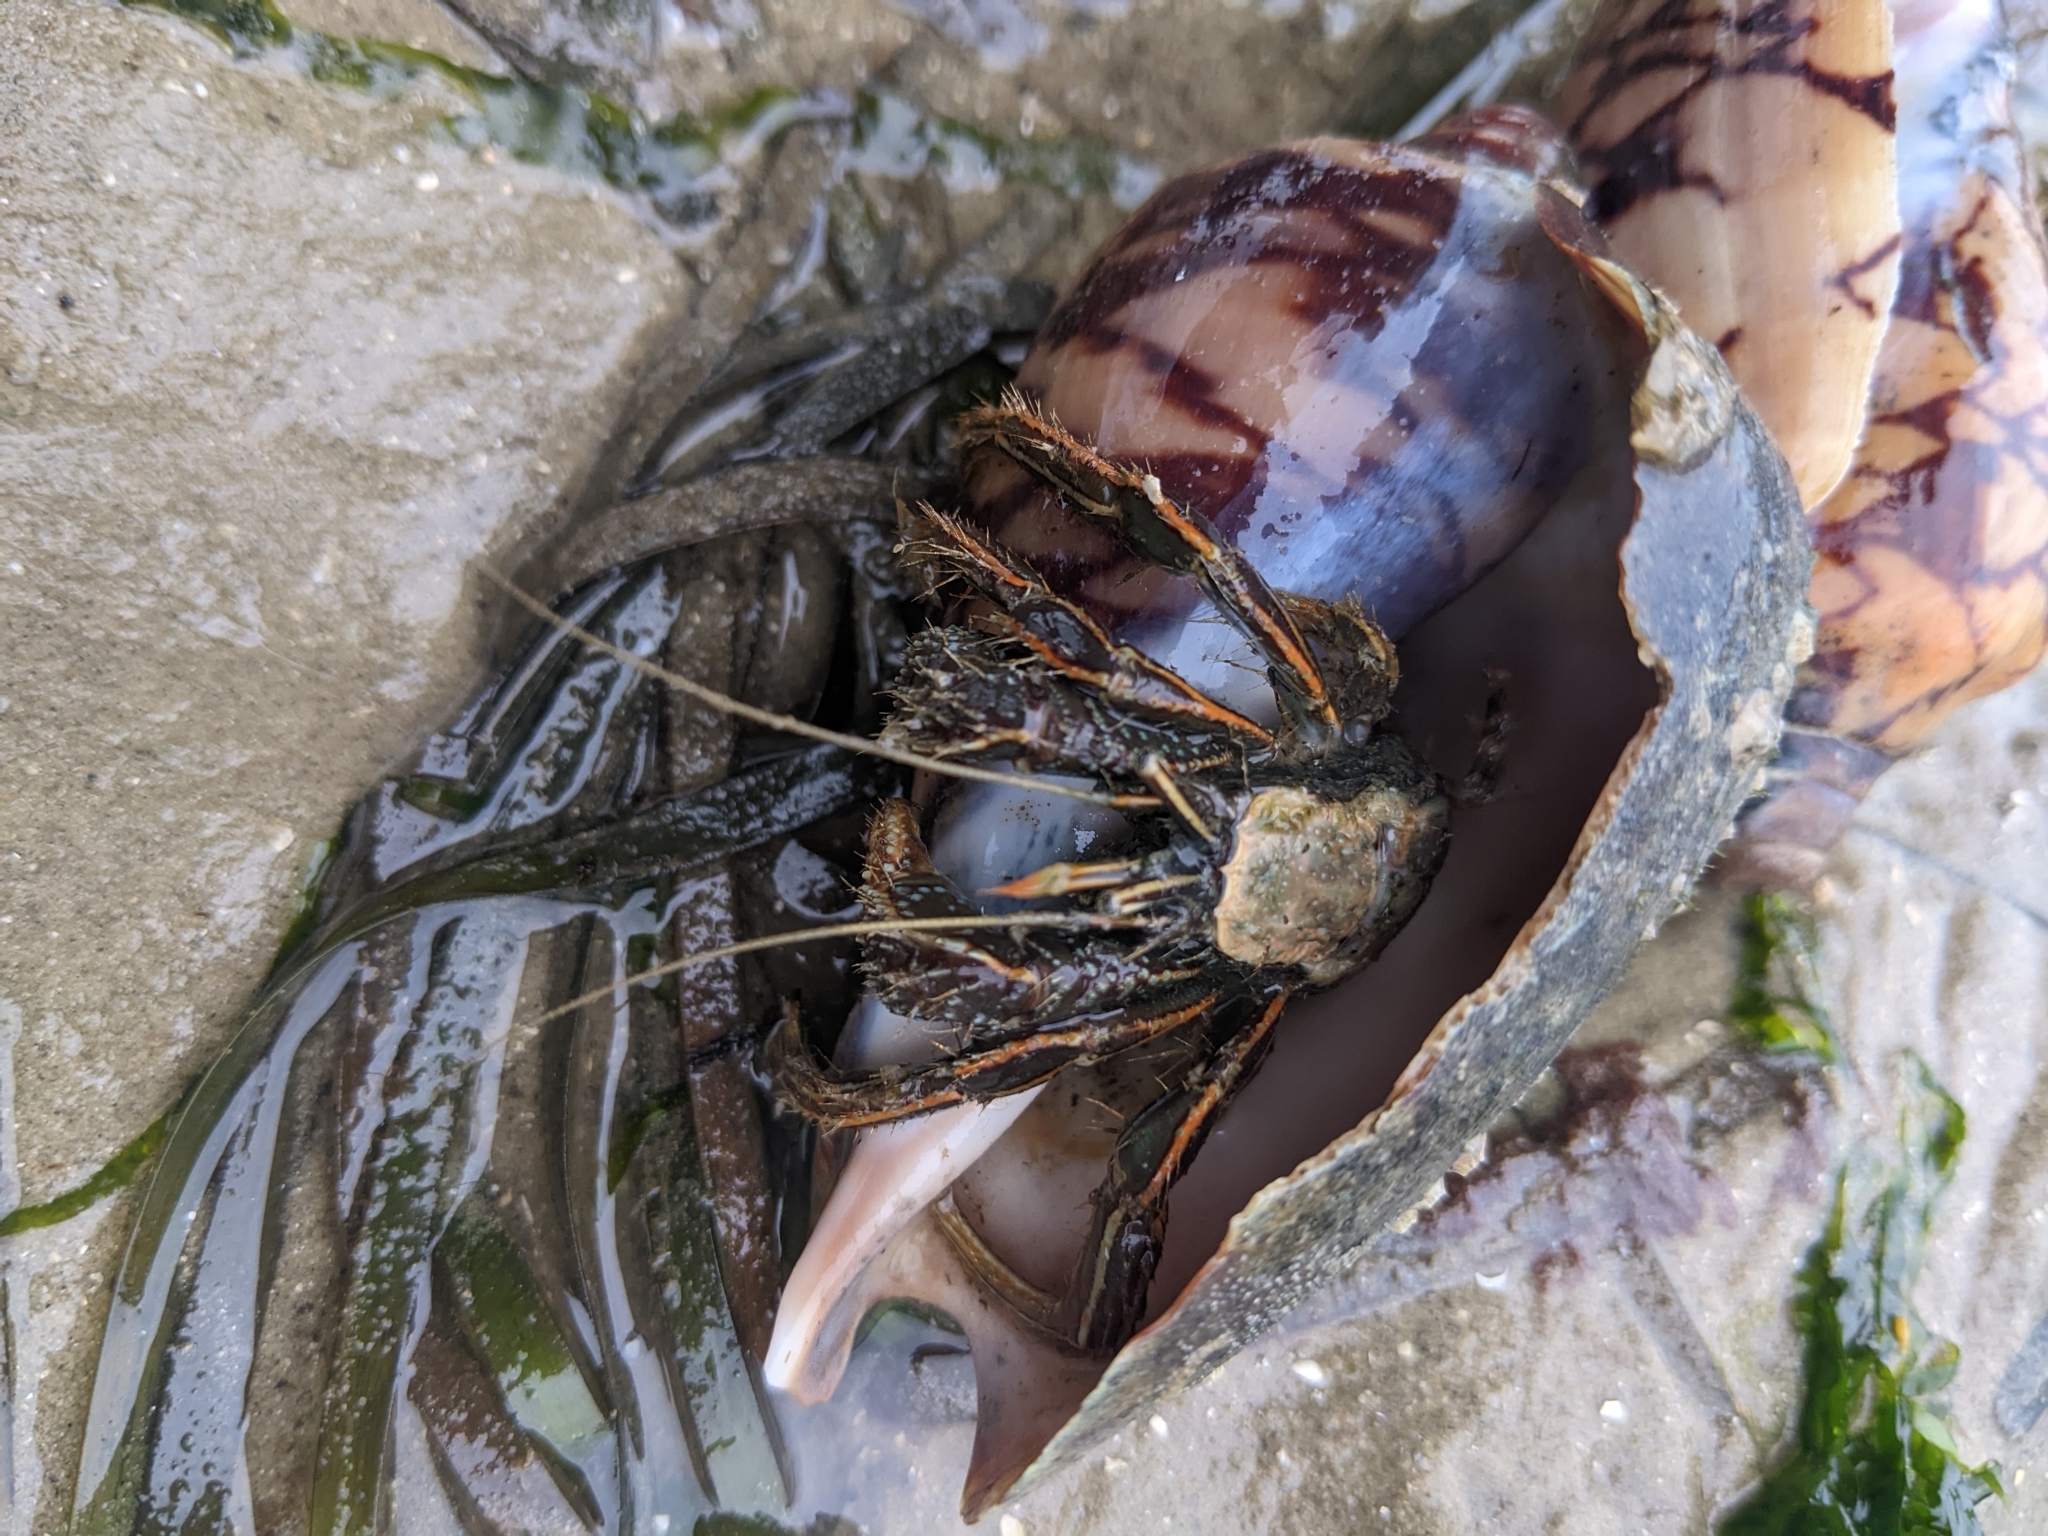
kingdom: Animalia
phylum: Arthropoda
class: Malacostraca
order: Decapoda
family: Diogenidae
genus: Clibanarius
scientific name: Clibanarius infraspinatus
